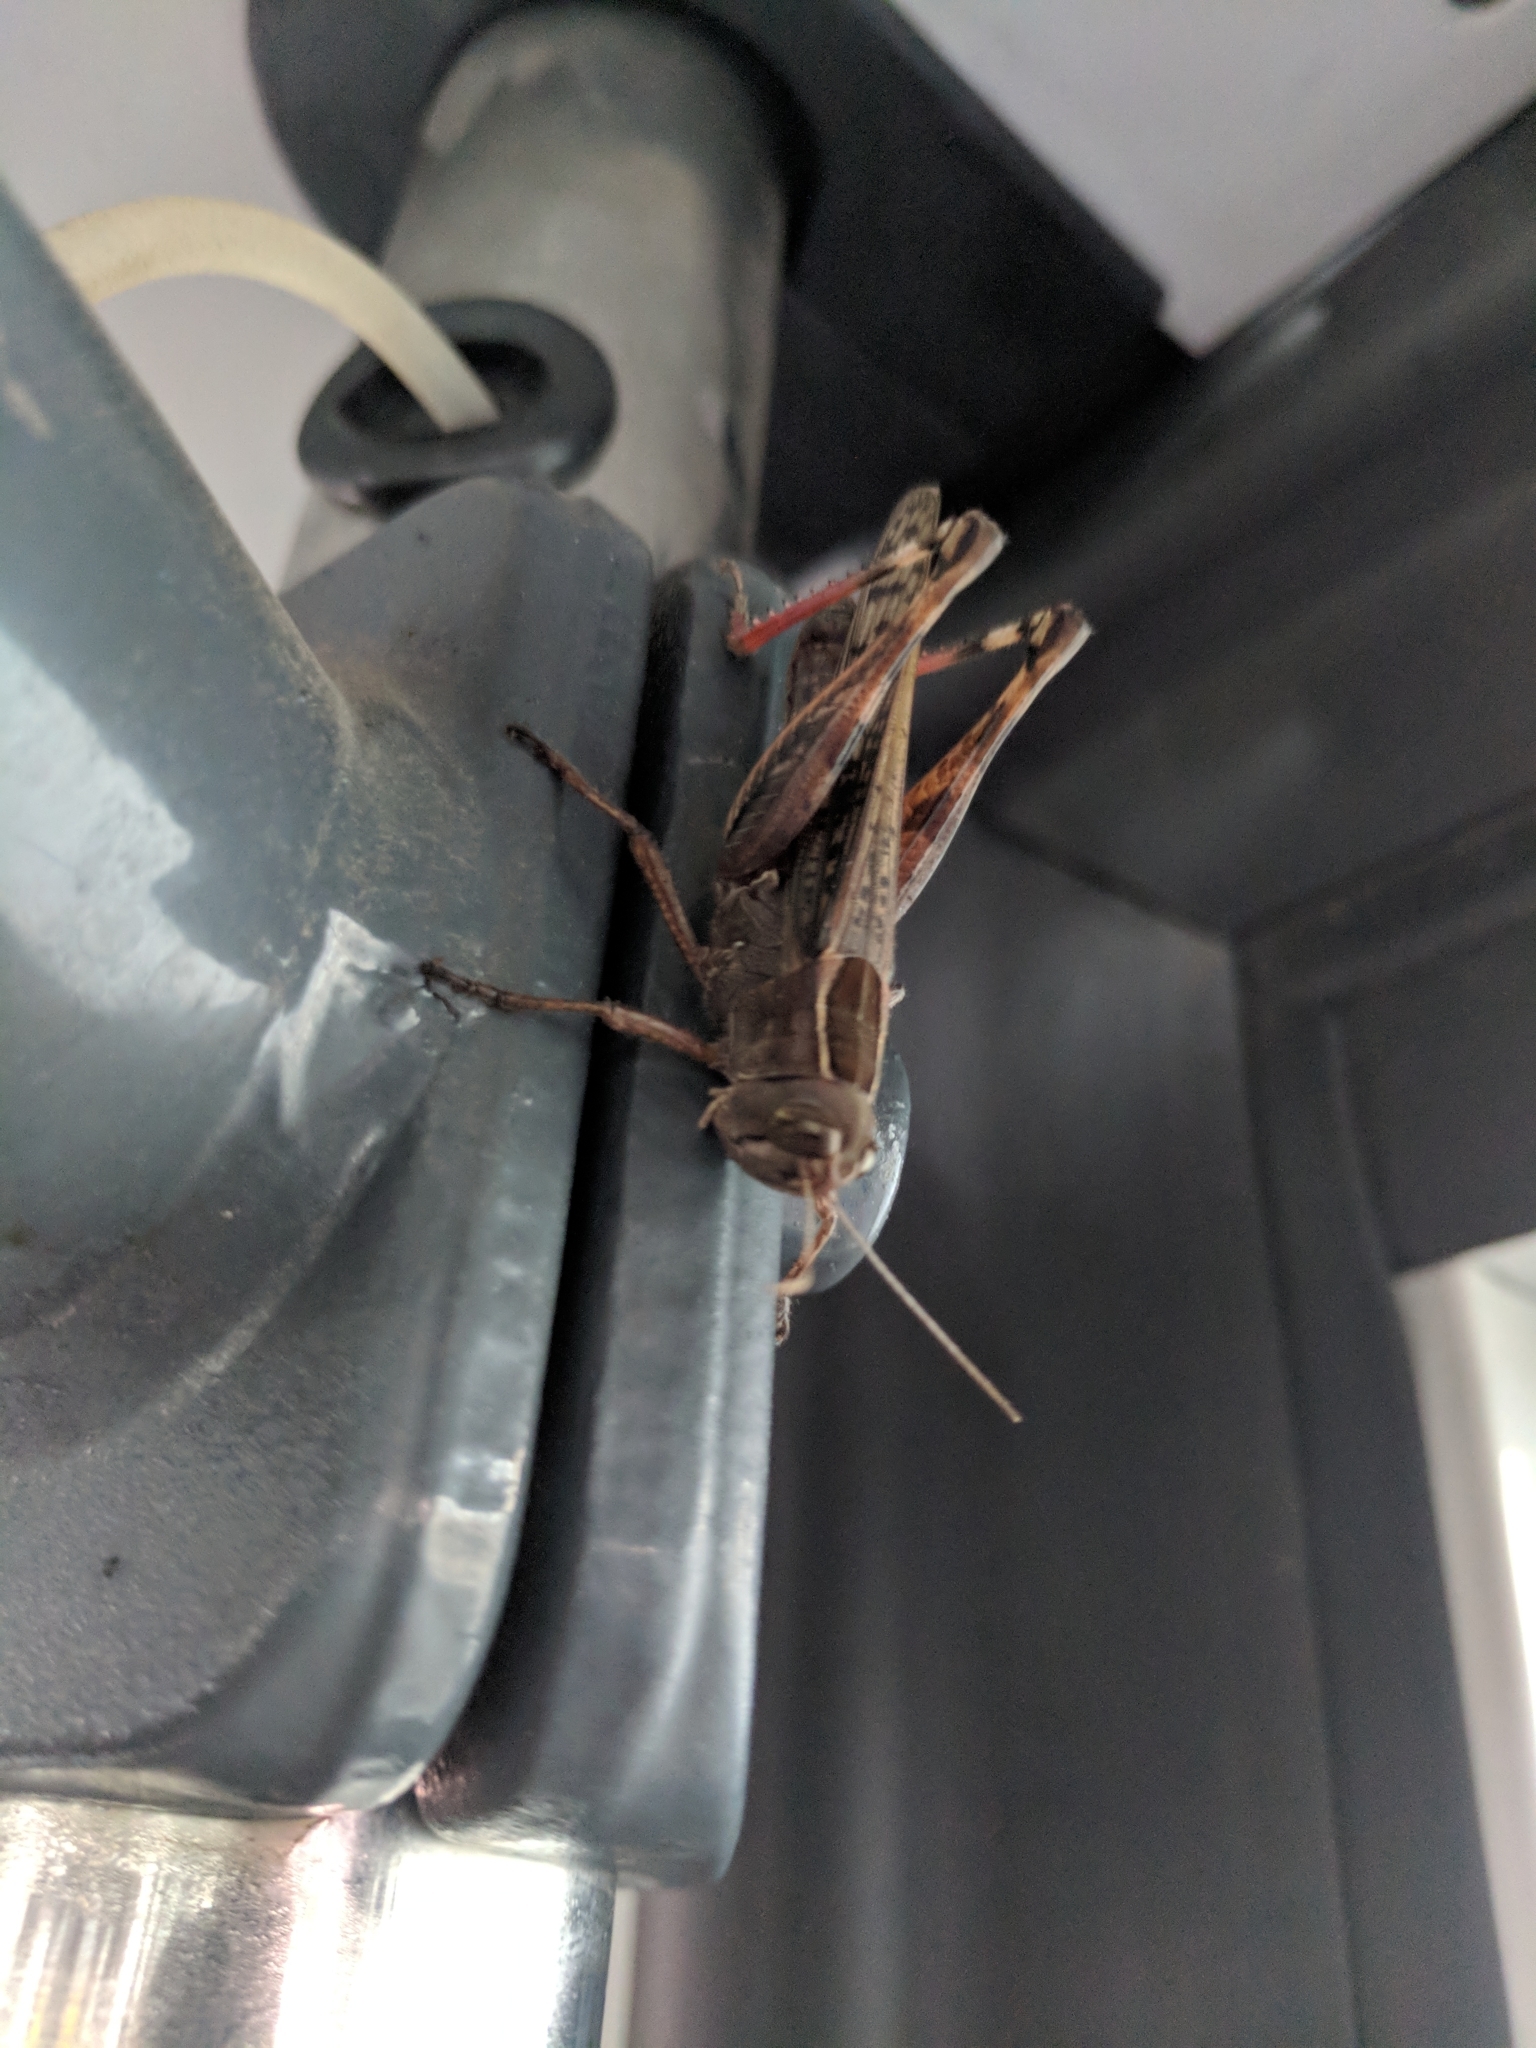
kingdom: Animalia
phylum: Arthropoda
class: Insecta
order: Orthoptera
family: Acrididae
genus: Shirakiacris
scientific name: Shirakiacris shirakii
